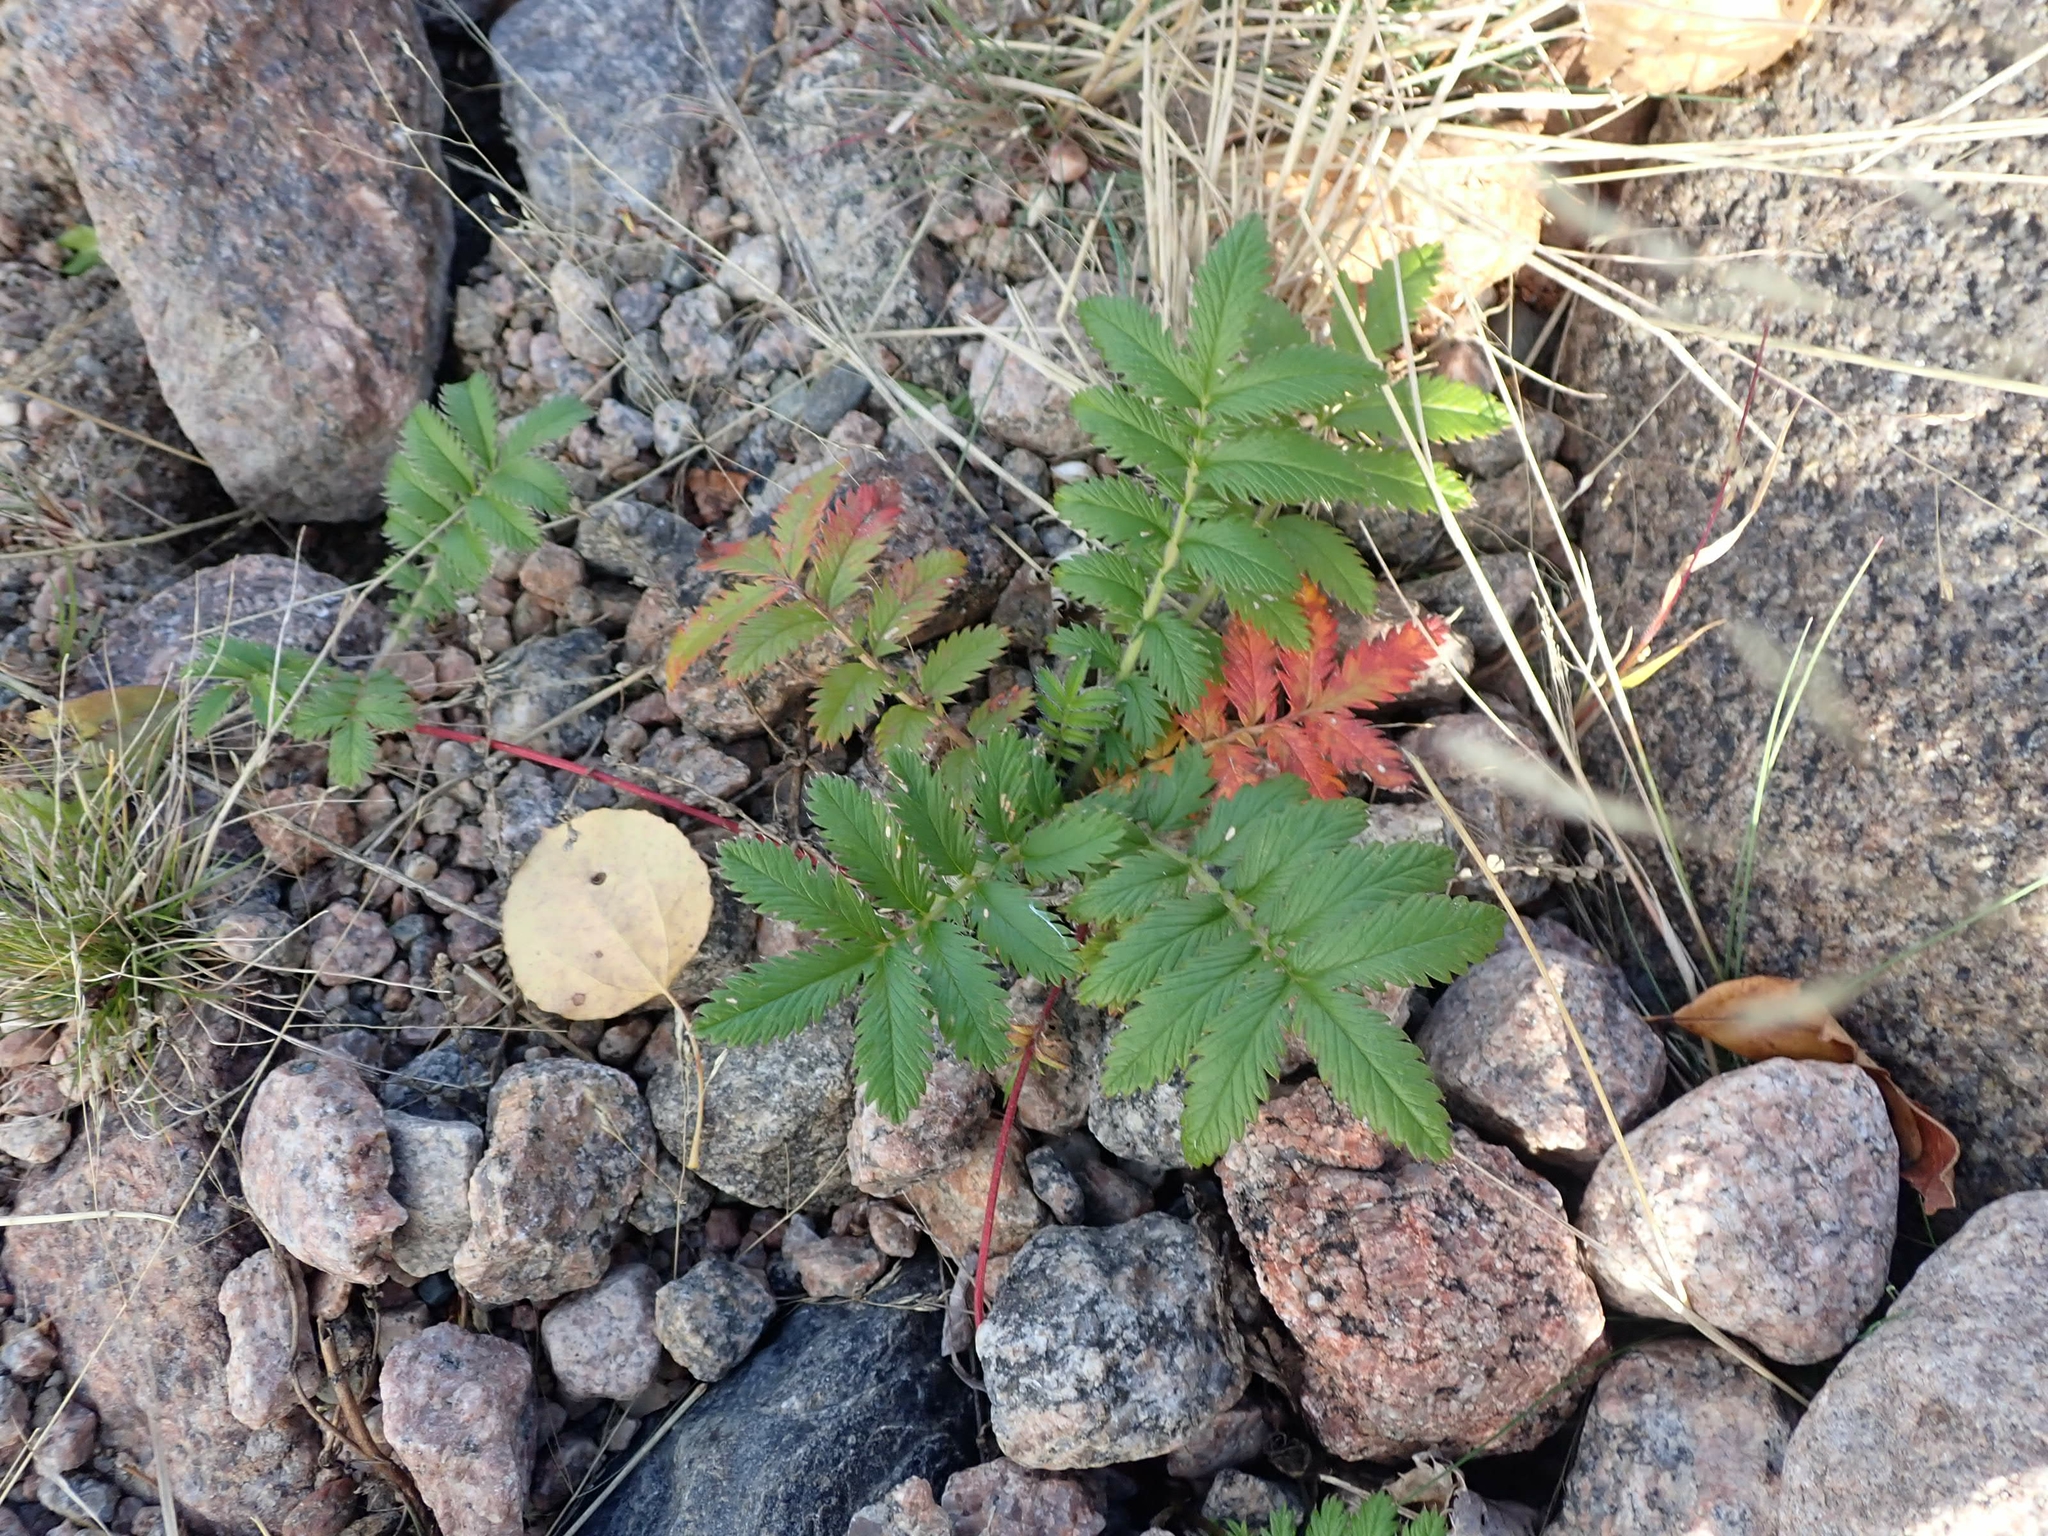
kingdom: Plantae
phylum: Tracheophyta
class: Magnoliopsida
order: Rosales
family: Rosaceae
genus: Argentina
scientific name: Argentina anserina
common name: Common silverweed
